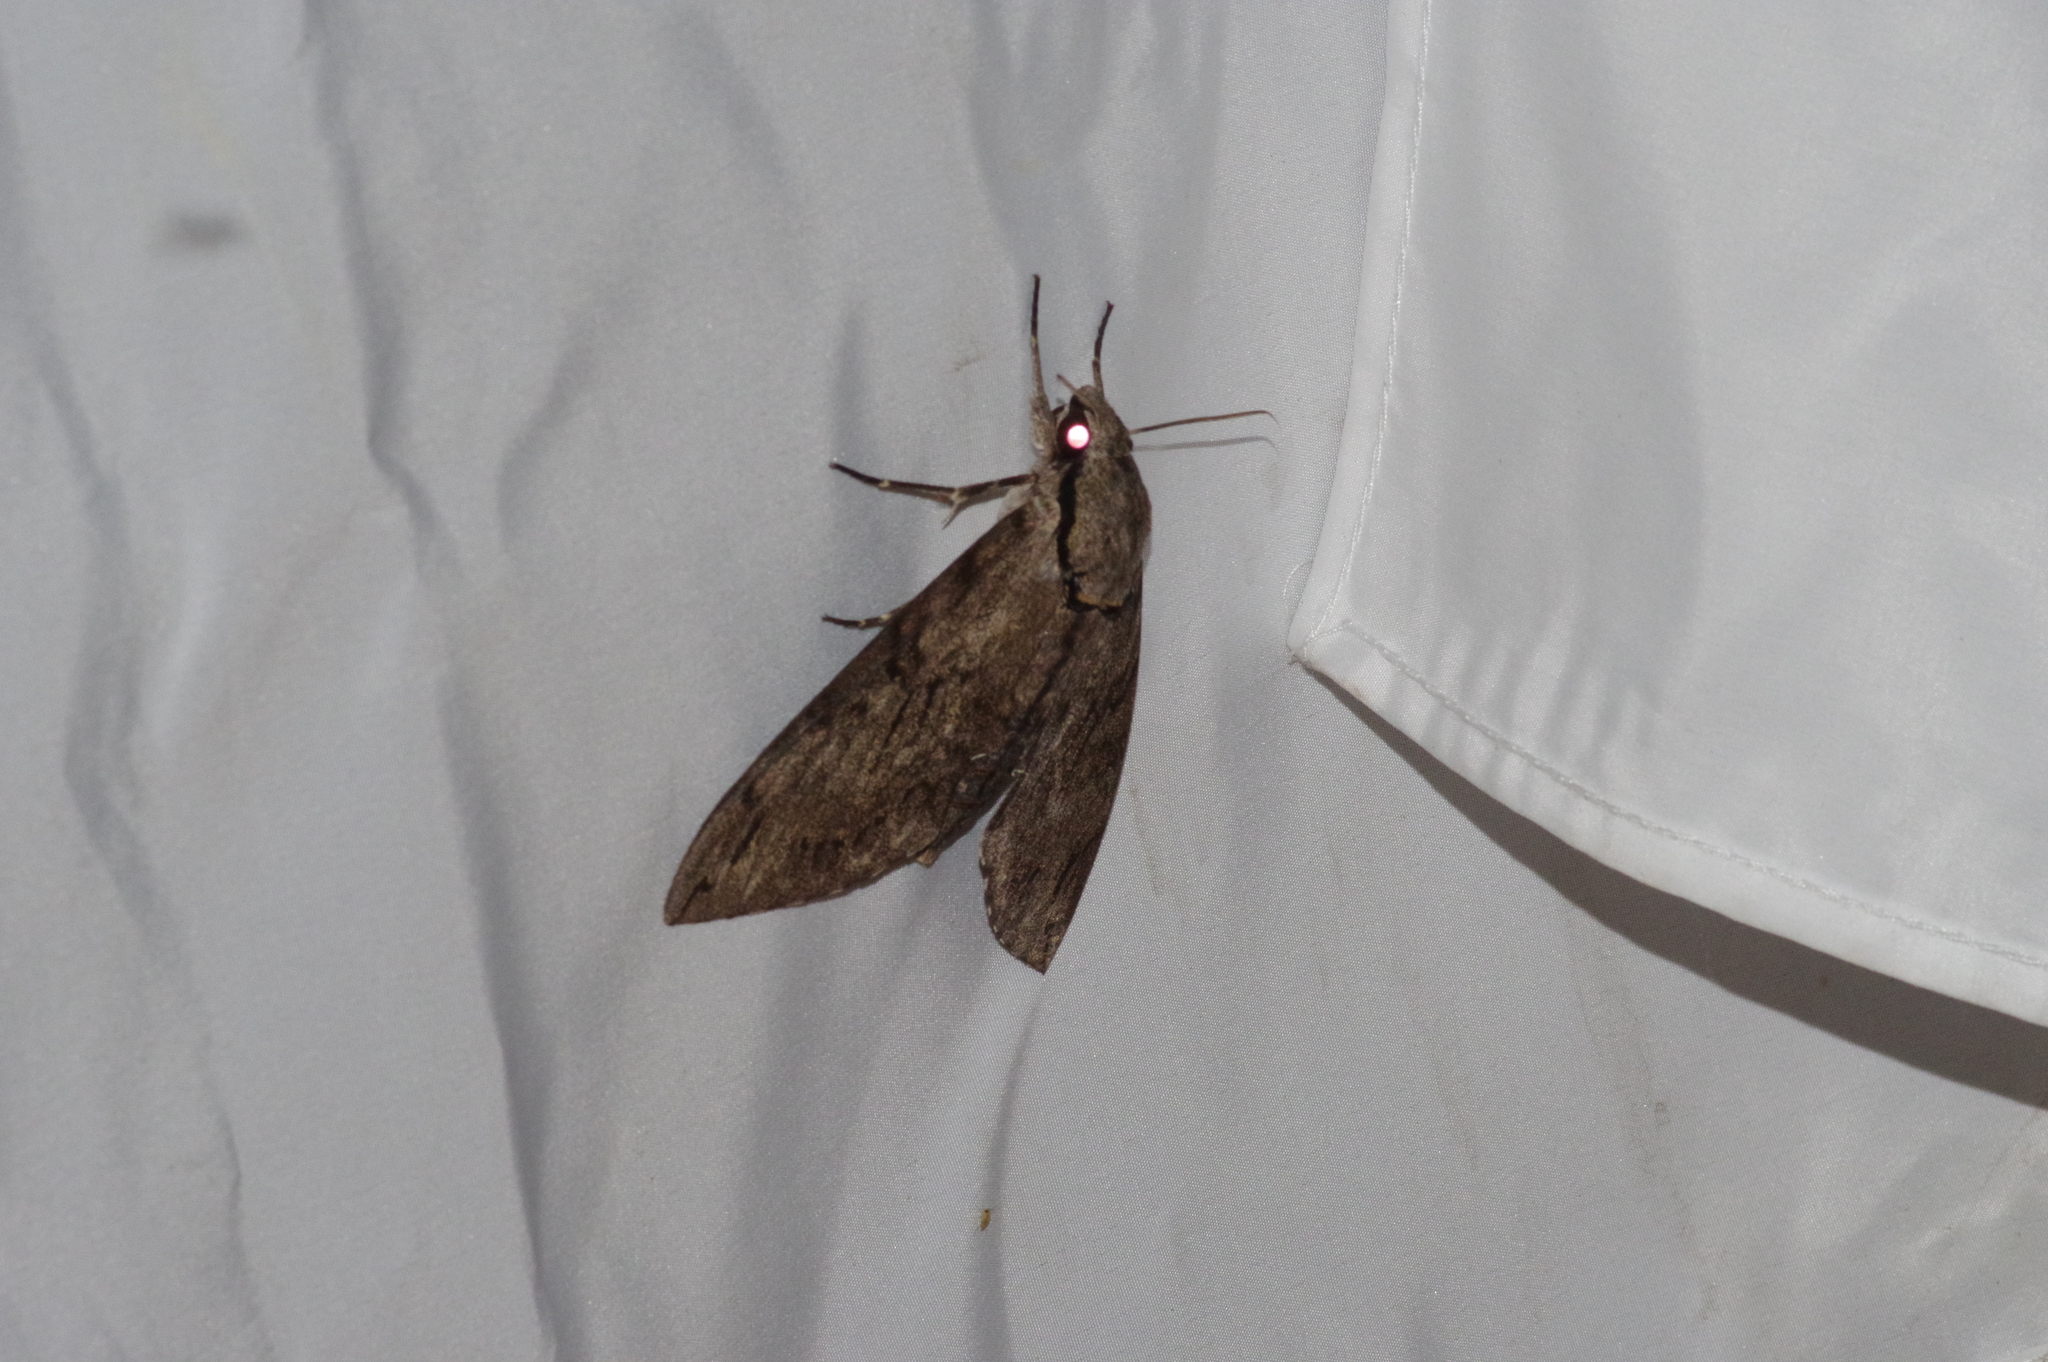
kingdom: Animalia
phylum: Arthropoda
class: Insecta
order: Lepidoptera
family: Sphingidae
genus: Psilogramma
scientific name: Psilogramma increta
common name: Gray hawk moth
